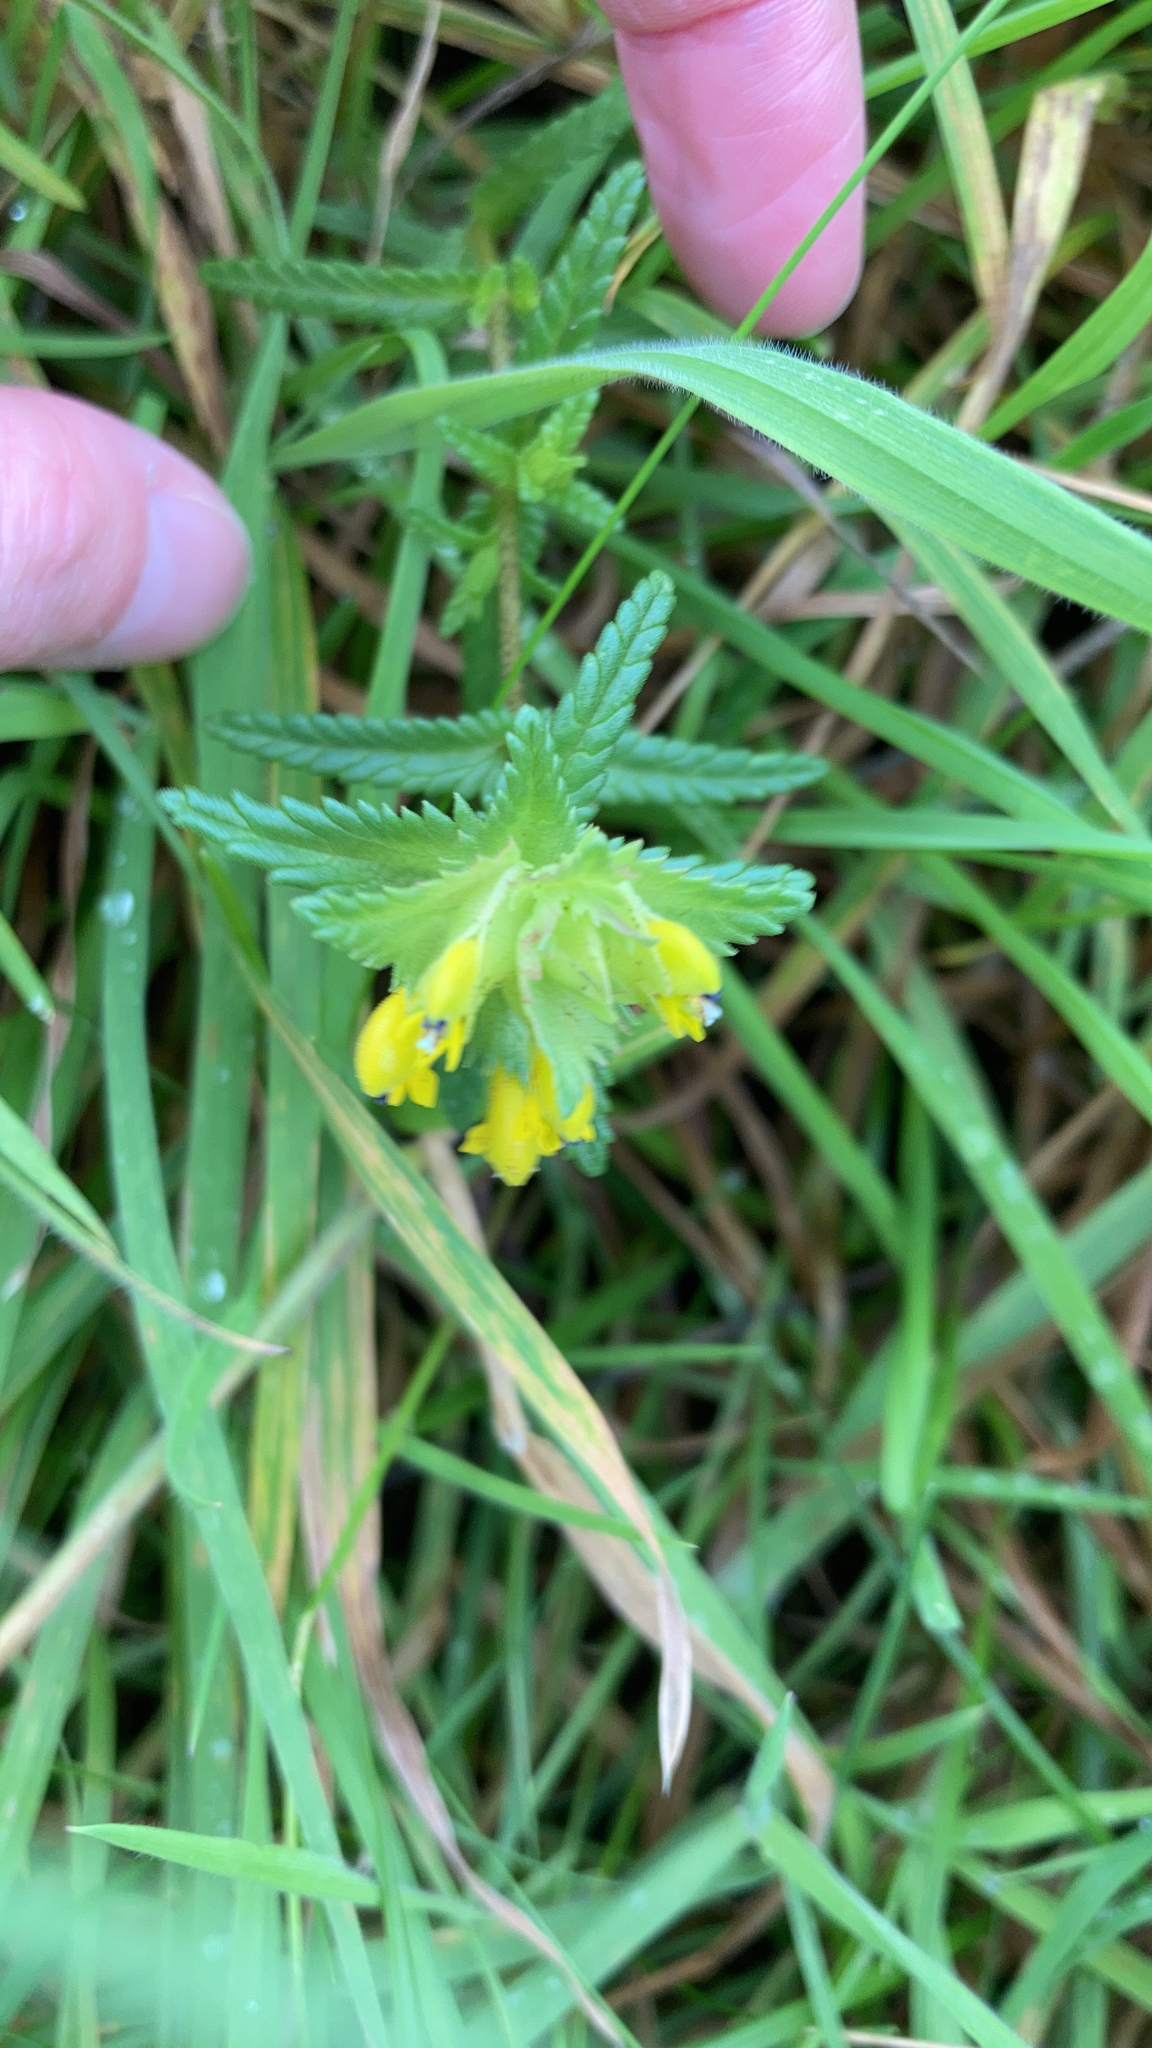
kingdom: Plantae
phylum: Tracheophyta
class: Magnoliopsida
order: Lamiales
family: Orobanchaceae
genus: Rhinanthus
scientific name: Rhinanthus minor
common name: Yellow-rattle
